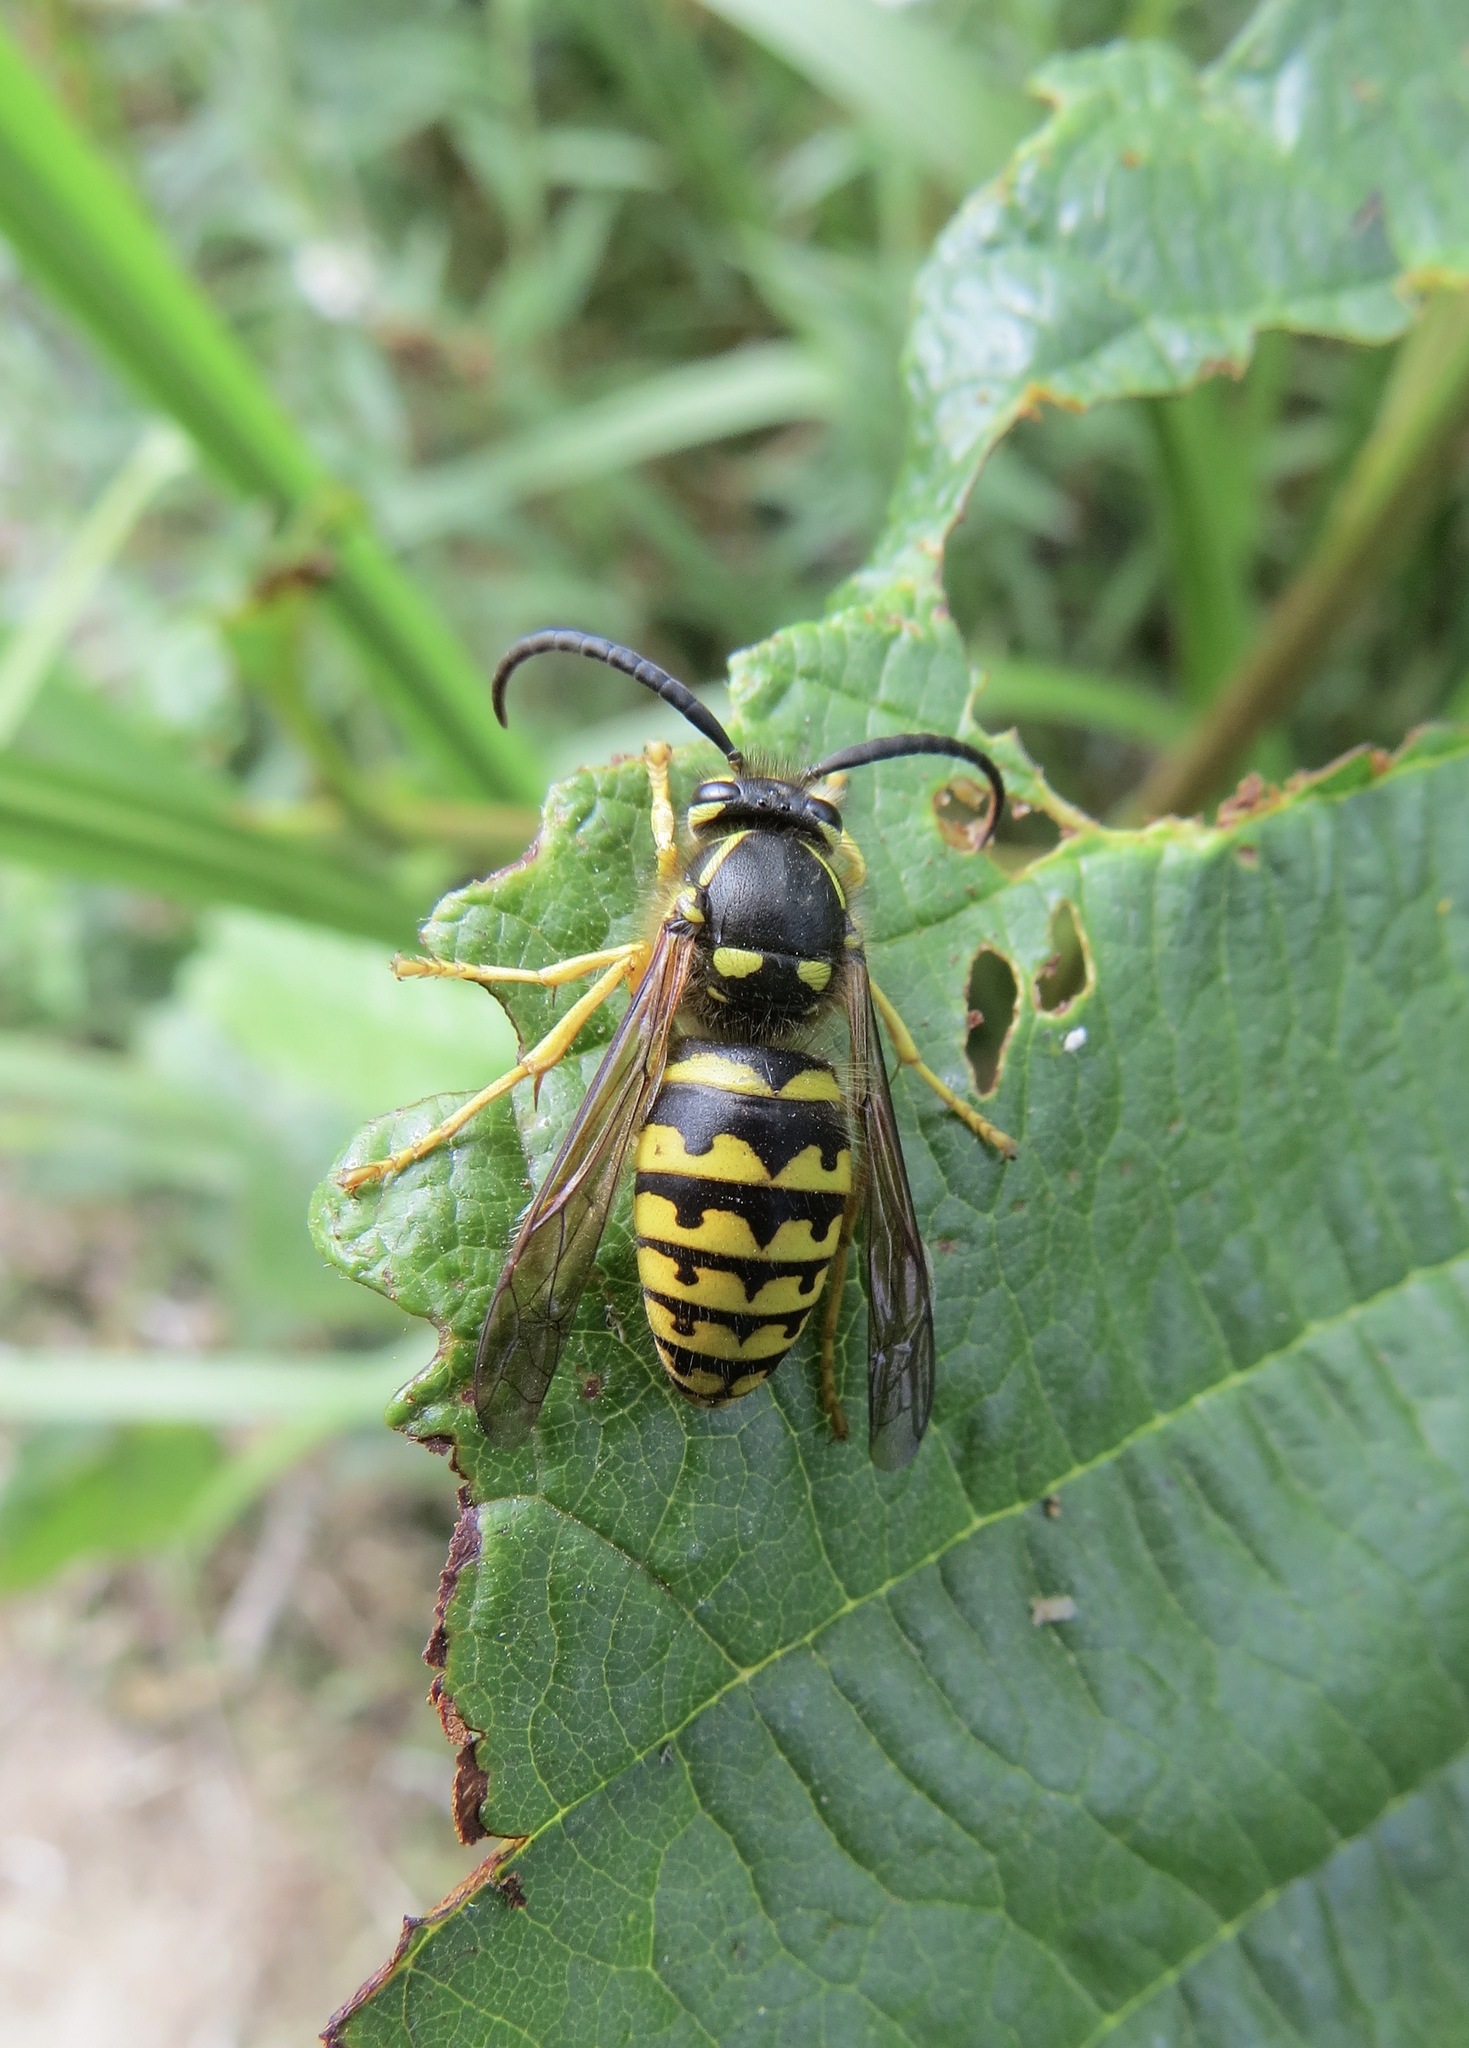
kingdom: Animalia
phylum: Arthropoda
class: Insecta
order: Hymenoptera
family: Vespidae
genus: Dolichovespula
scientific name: Dolichovespula arenaria
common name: Aerial yellowjacket
